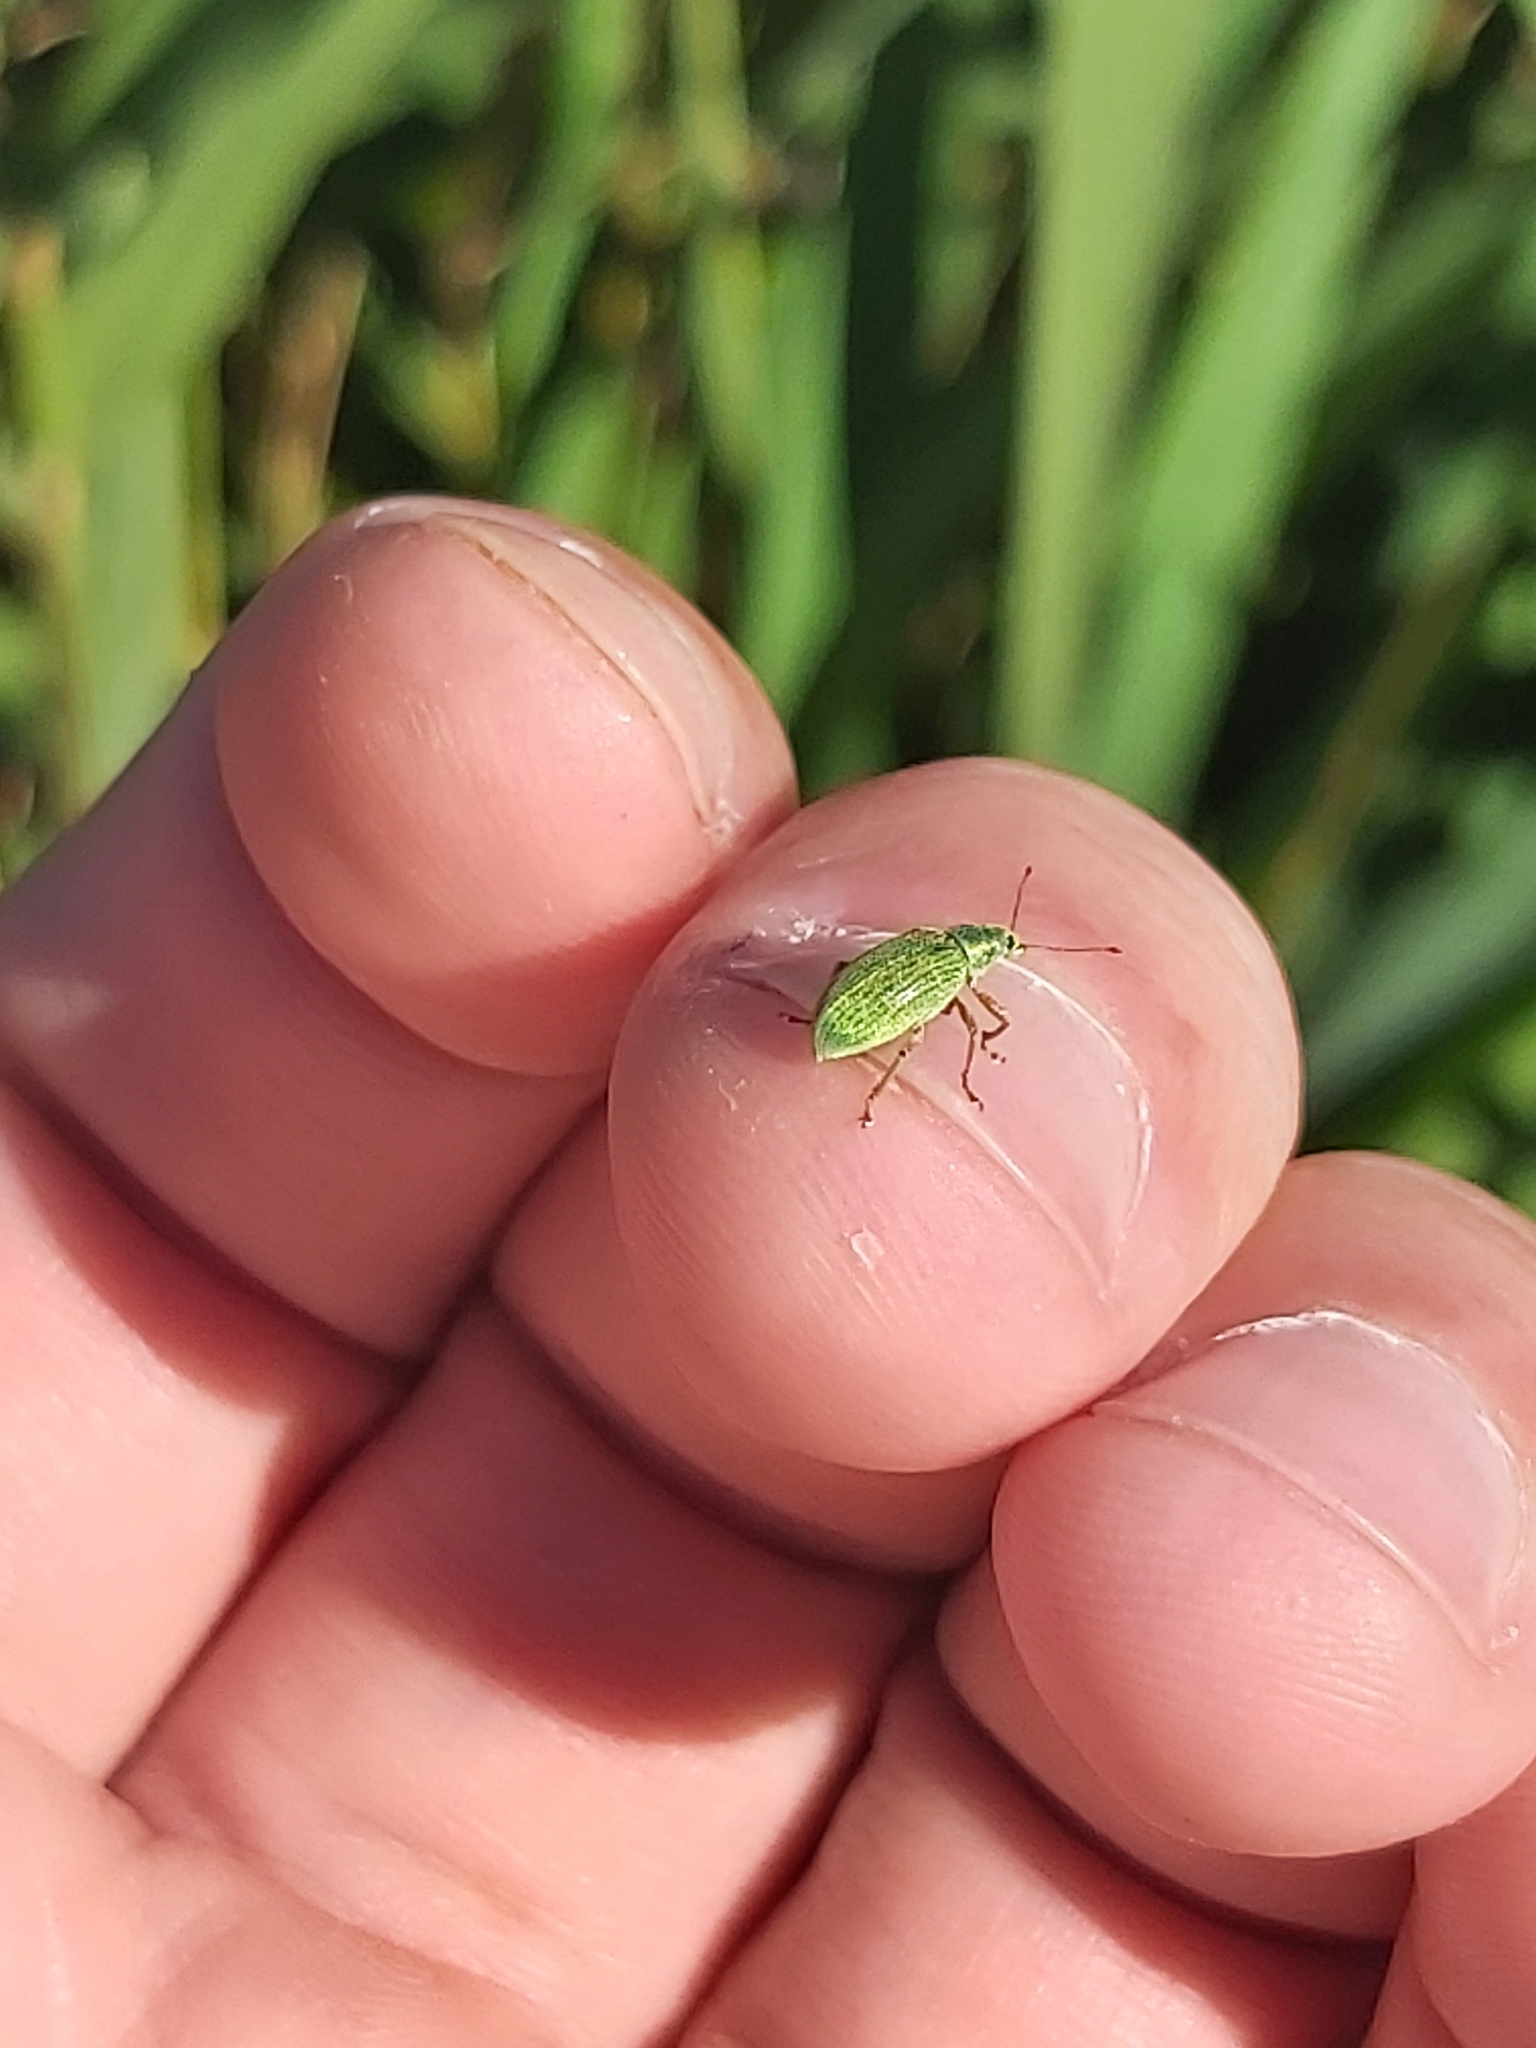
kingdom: Animalia
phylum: Arthropoda
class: Insecta
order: Coleoptera
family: Curculionidae
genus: Polydrusus
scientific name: Polydrusus formosus
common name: Weevil
